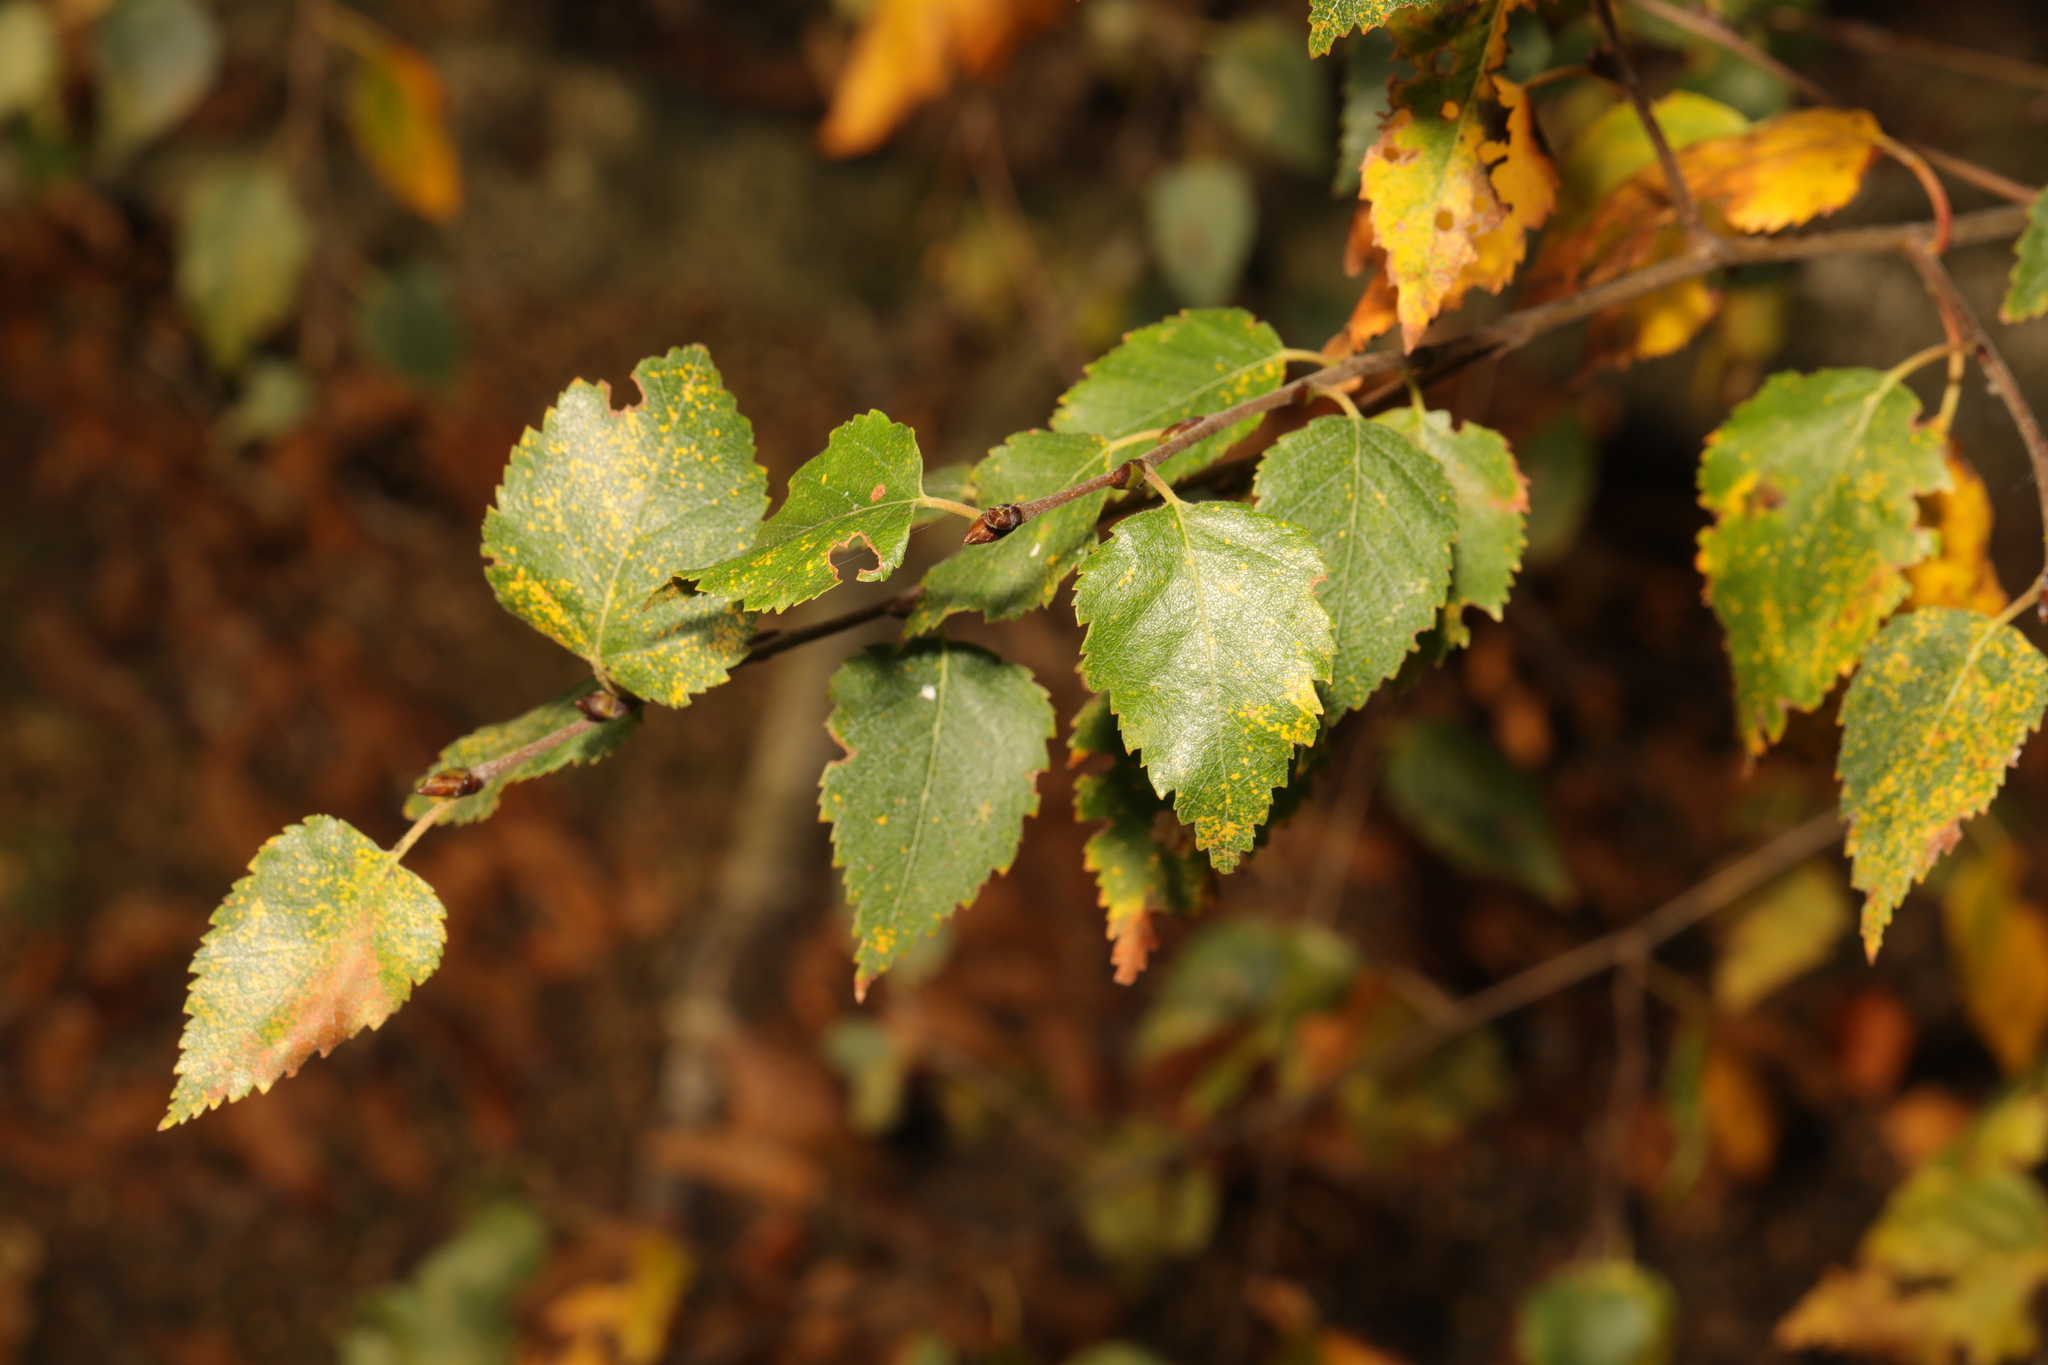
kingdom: Plantae
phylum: Tracheophyta
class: Magnoliopsida
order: Fagales
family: Betulaceae
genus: Betula
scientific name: Betula pubescens
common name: Downy birch
